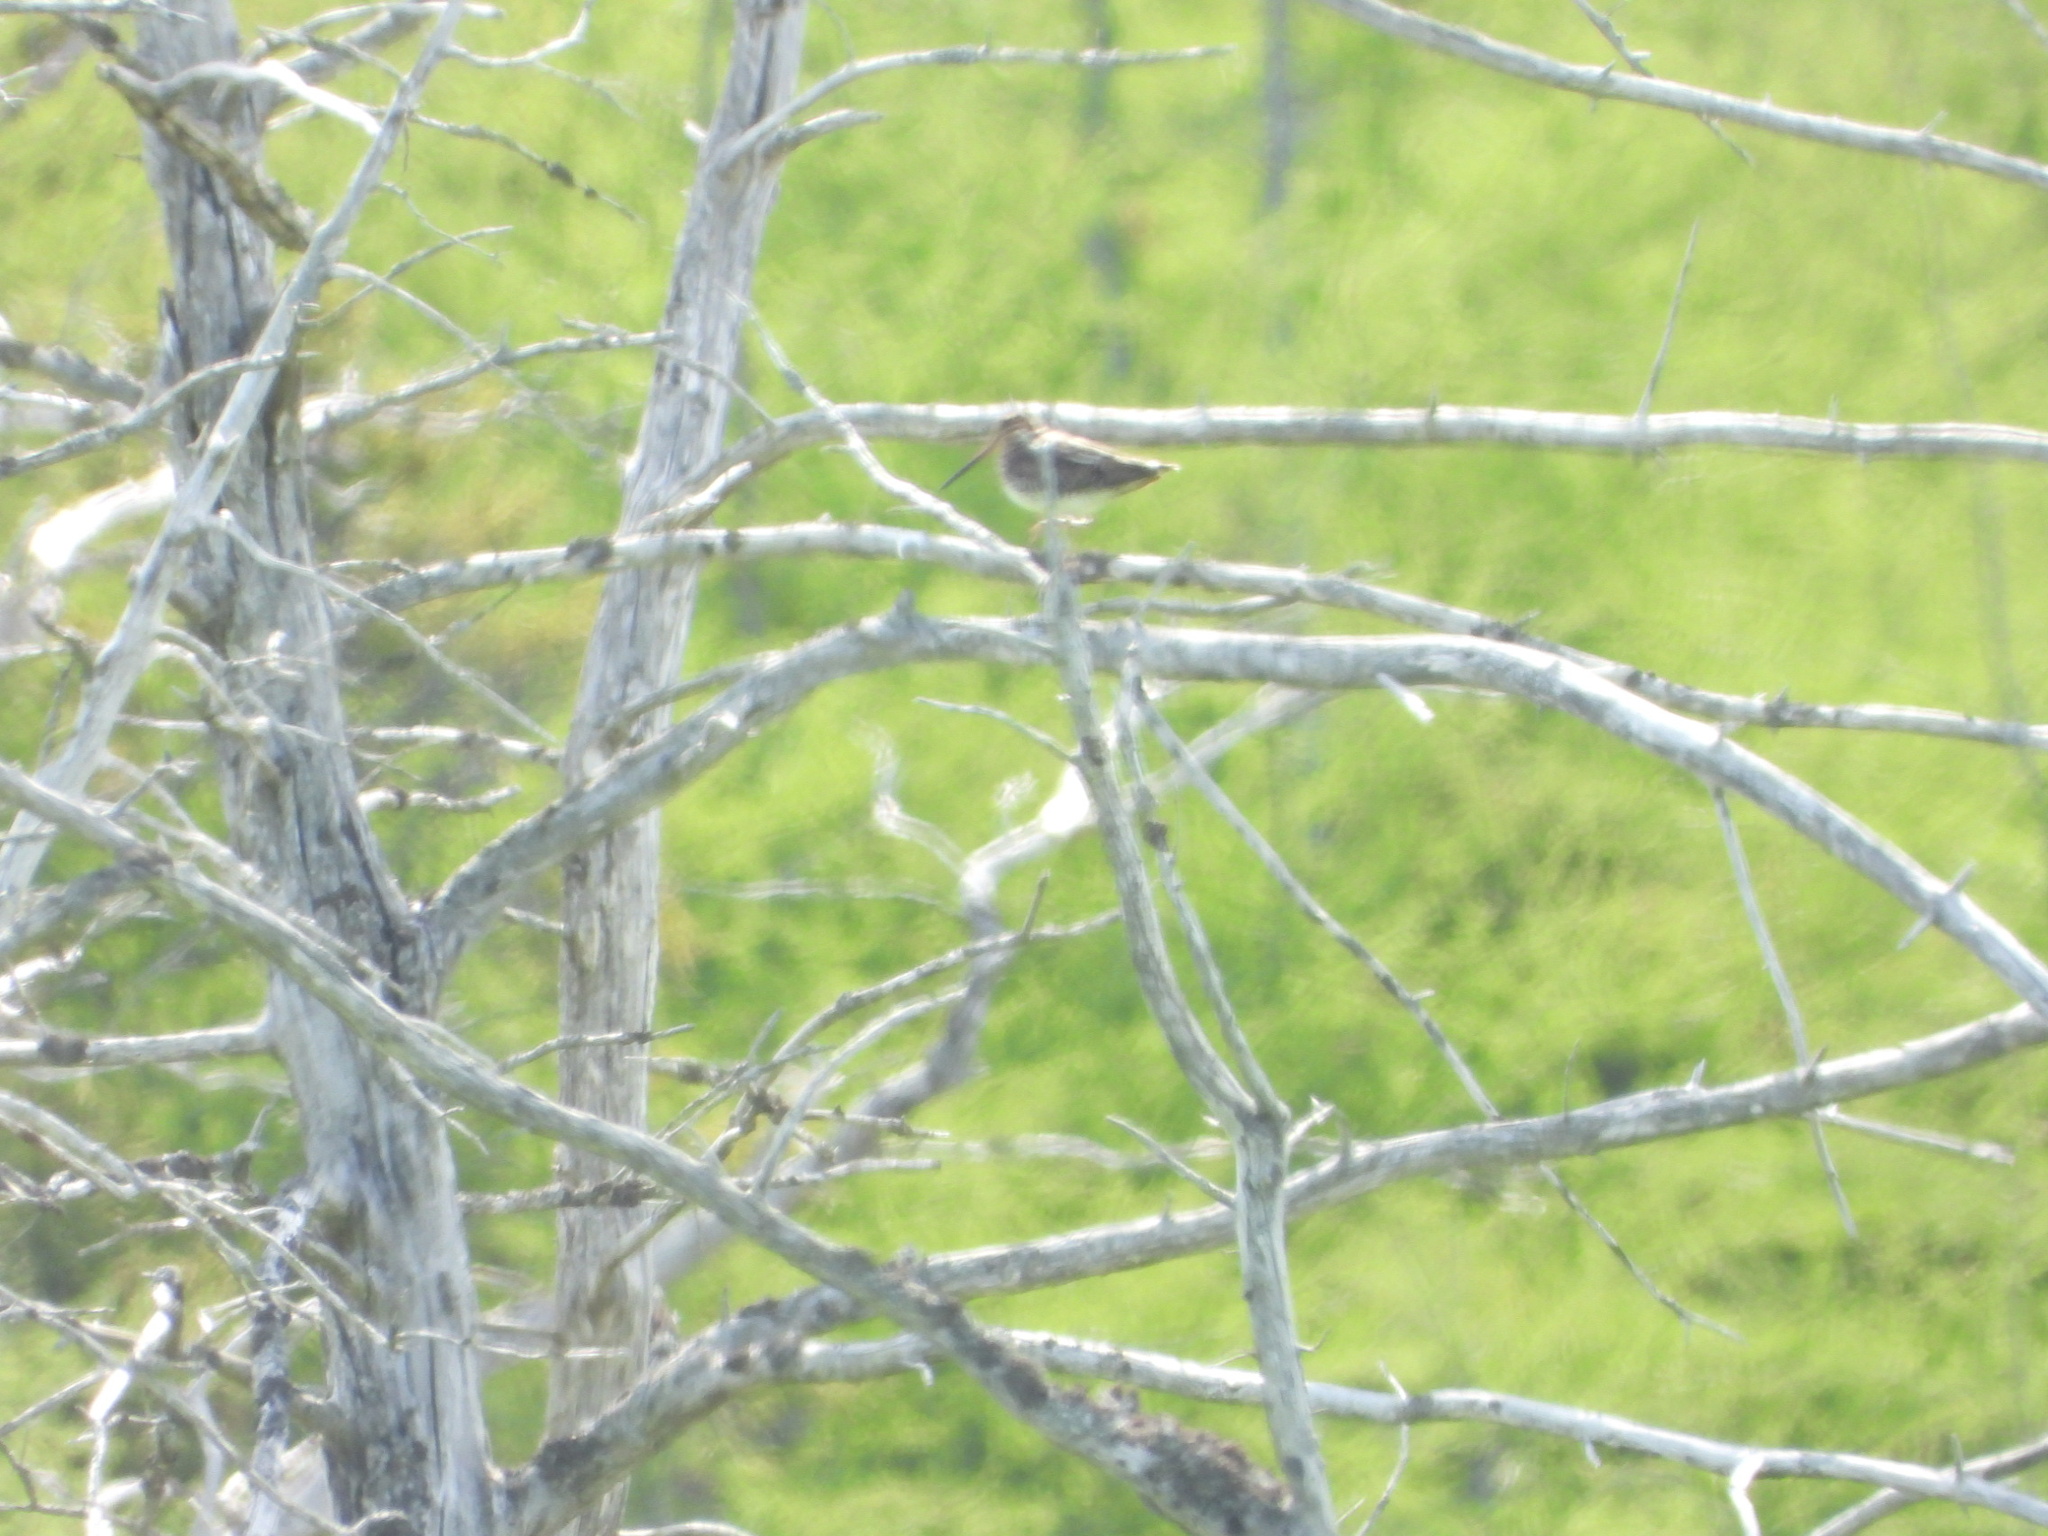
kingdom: Animalia
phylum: Chordata
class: Aves
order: Charadriiformes
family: Scolopacidae
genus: Gallinago
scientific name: Gallinago delicata
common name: Wilson's snipe
